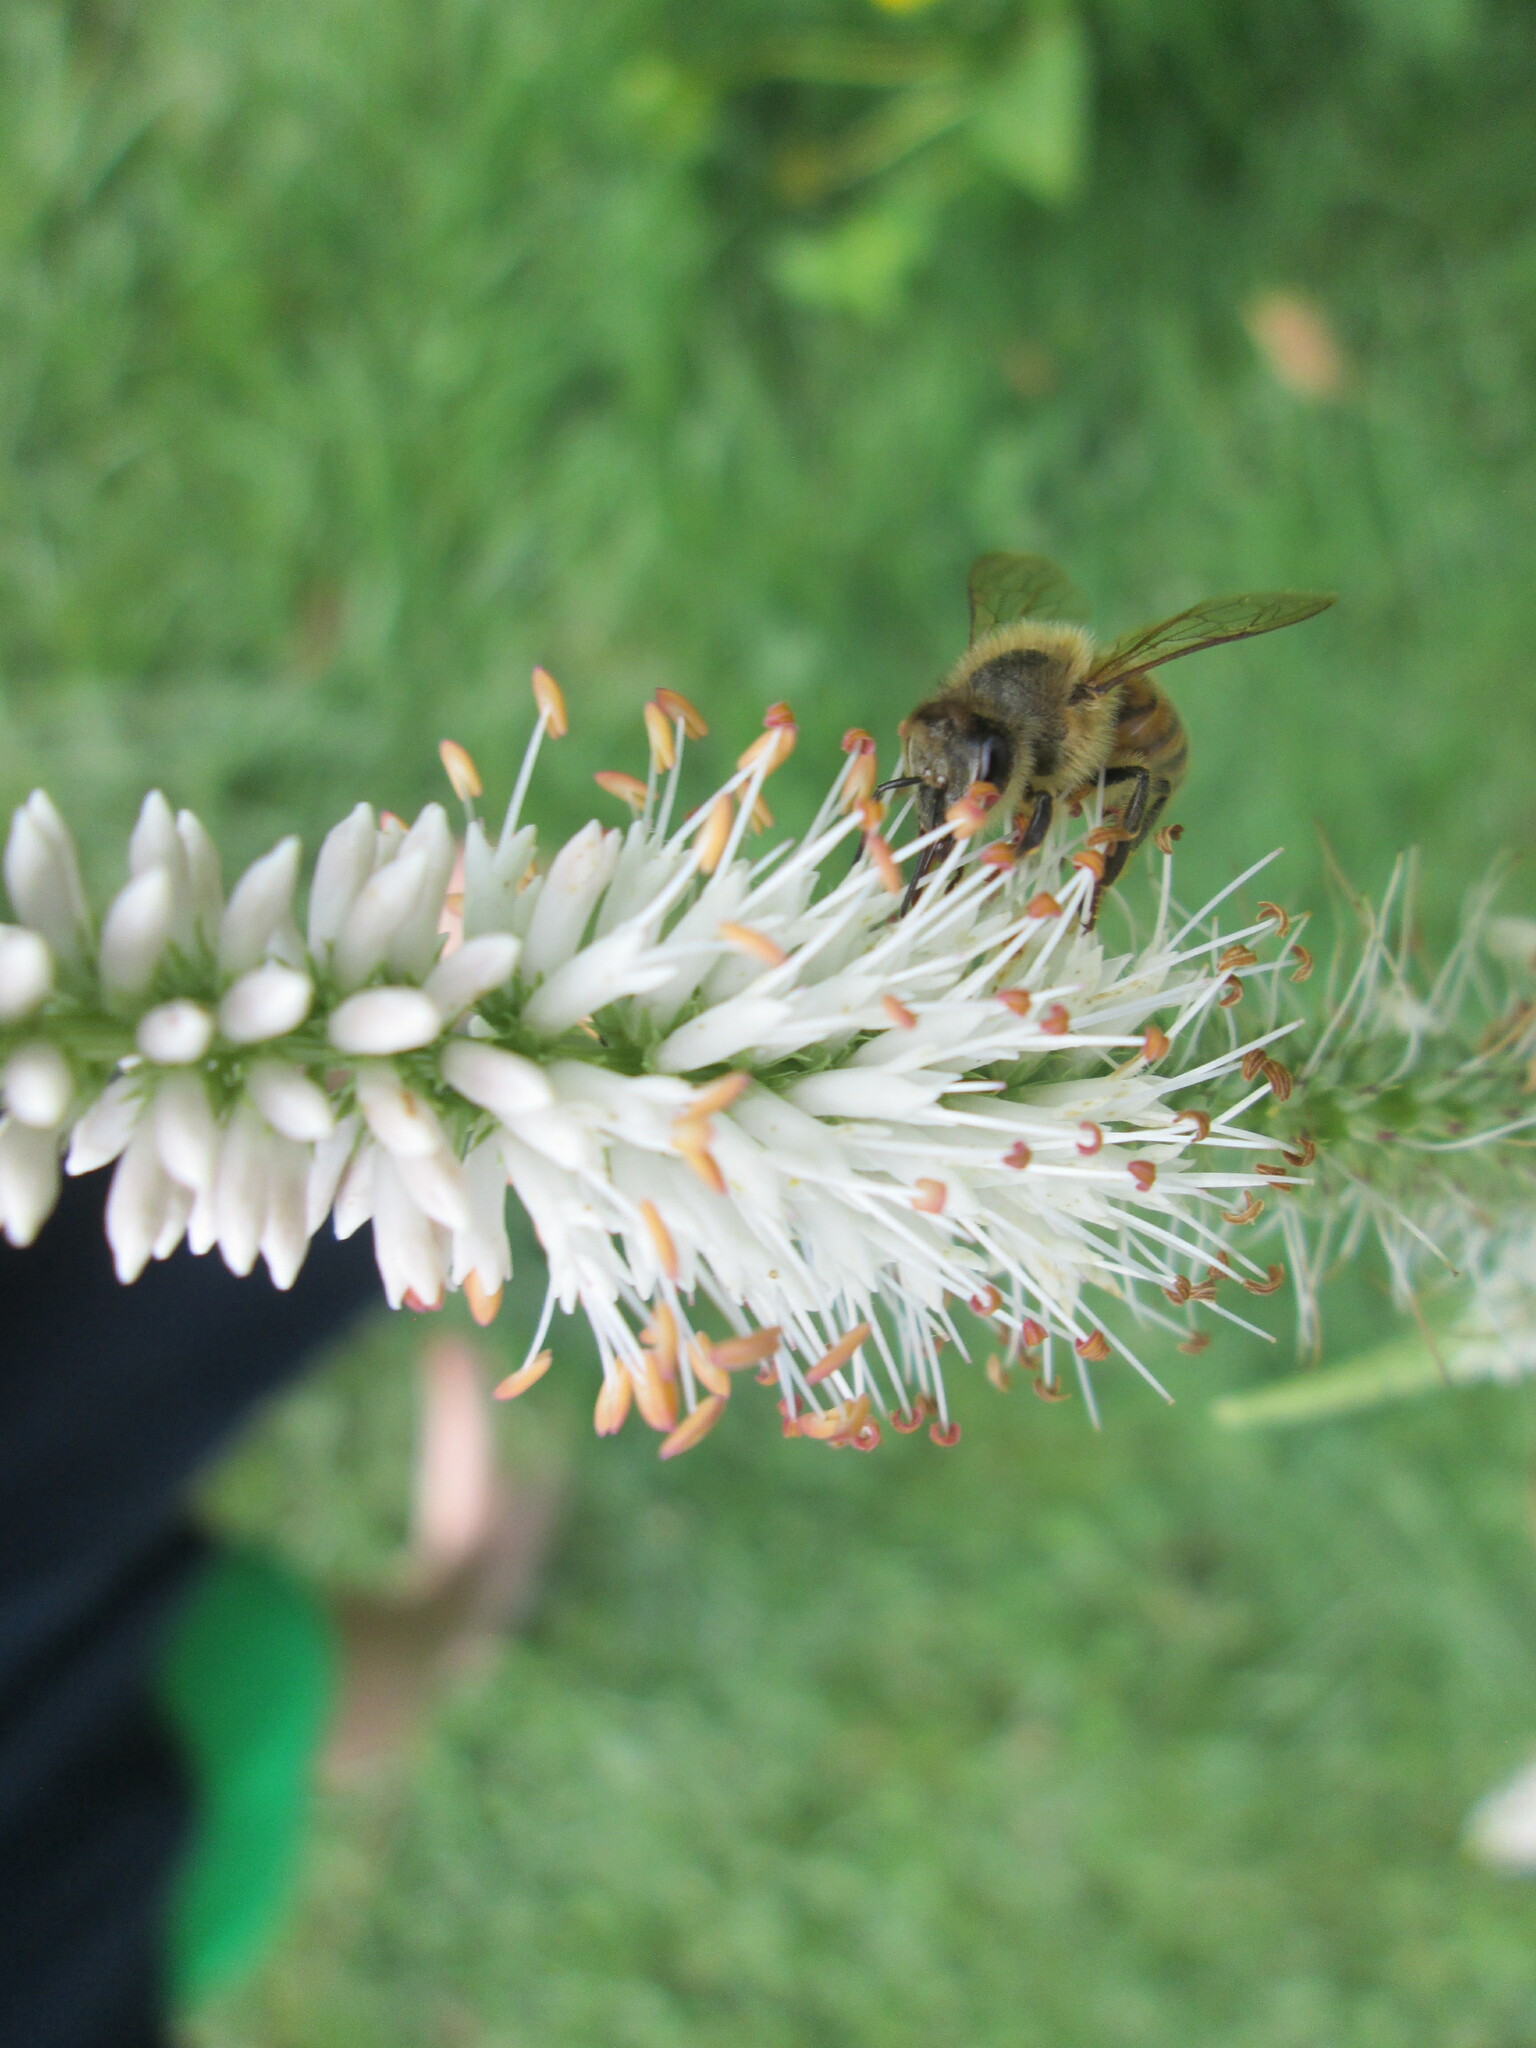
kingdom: Animalia
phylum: Arthropoda
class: Insecta
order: Hymenoptera
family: Apidae
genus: Apis
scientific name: Apis mellifera
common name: Honey bee
